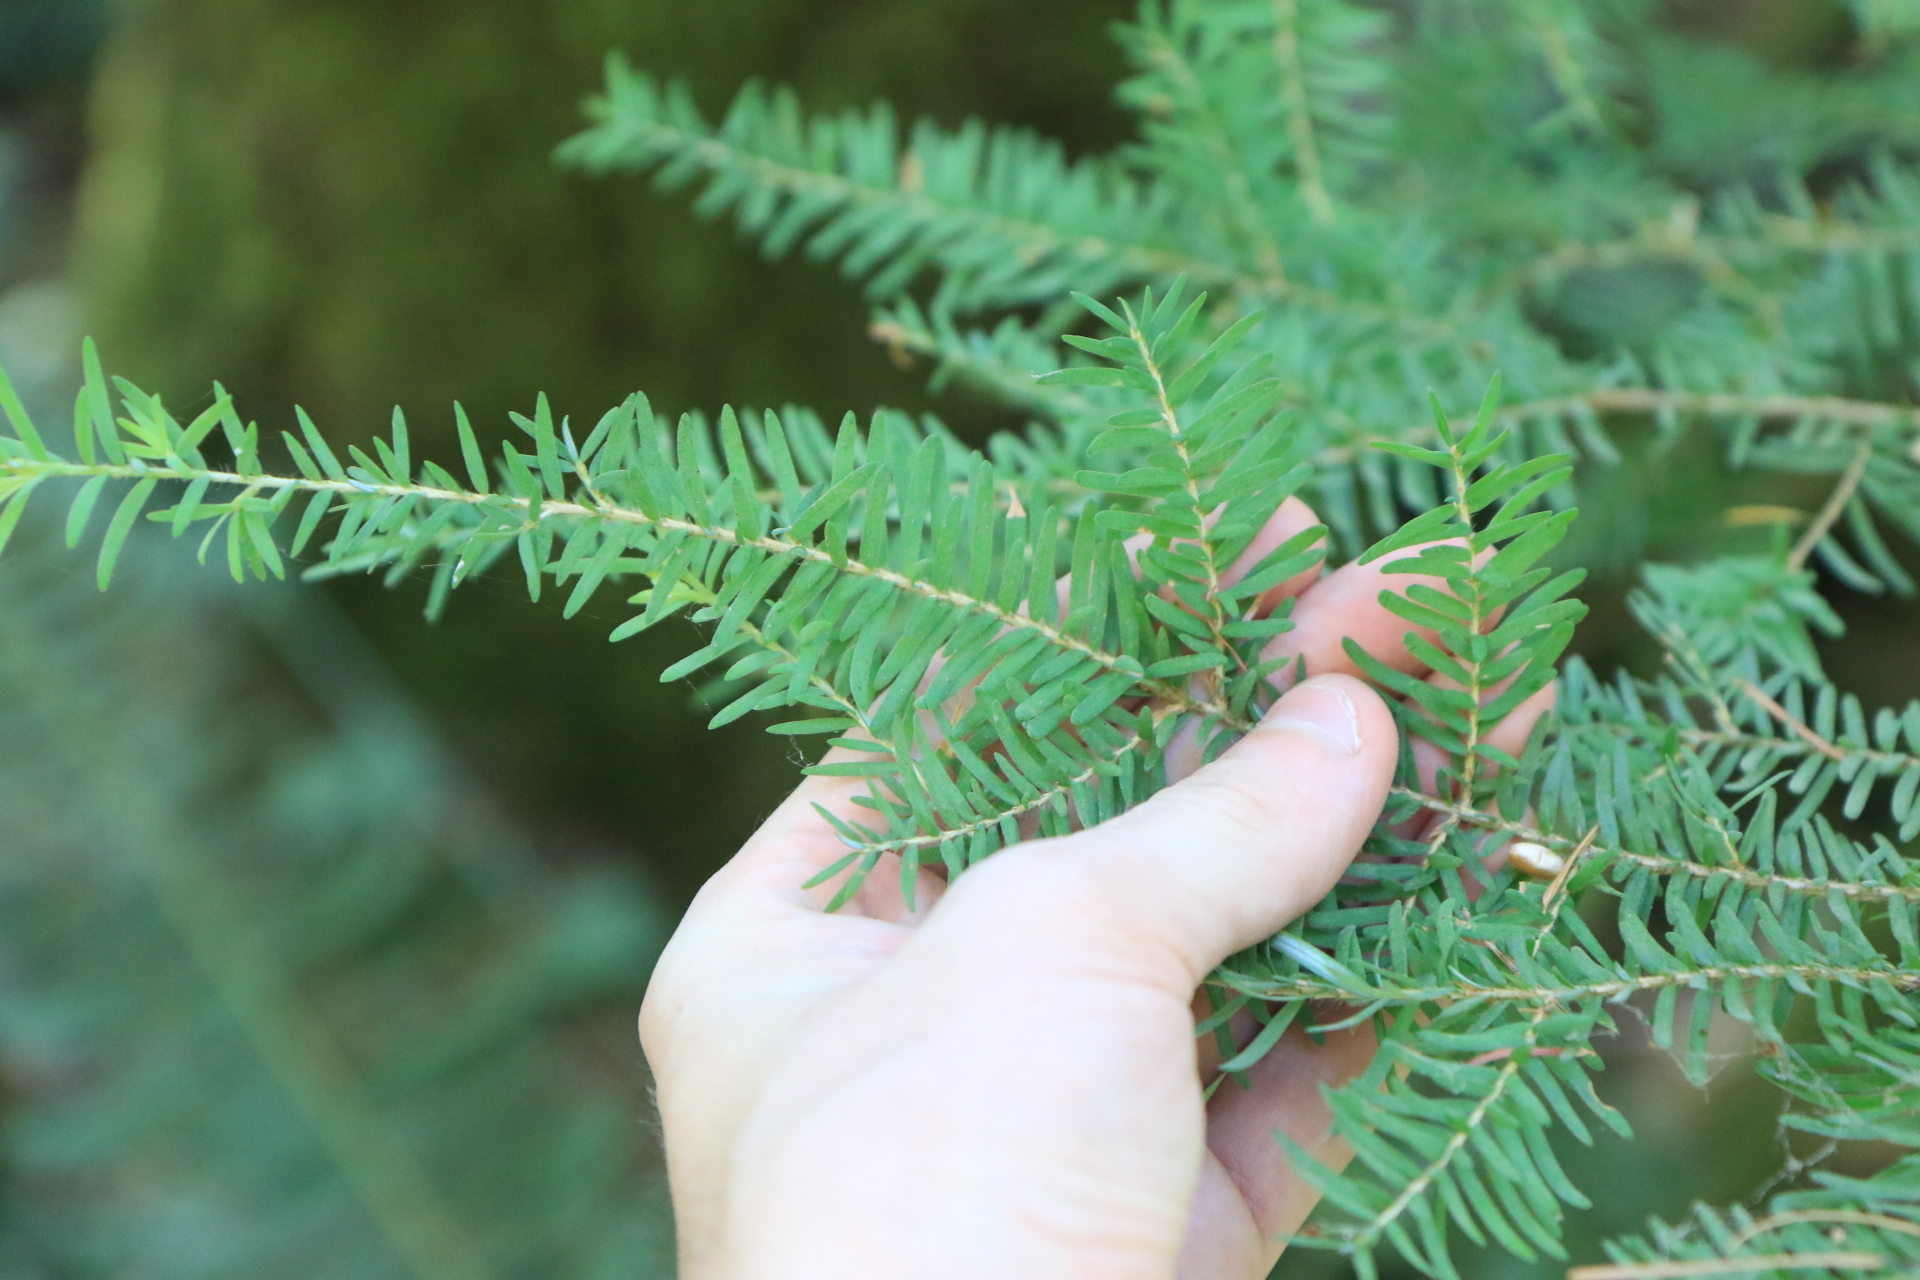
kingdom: Plantae
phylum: Tracheophyta
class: Pinopsida
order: Pinales
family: Pinaceae
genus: Tsuga
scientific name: Tsuga heterophylla
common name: Western hemlock
